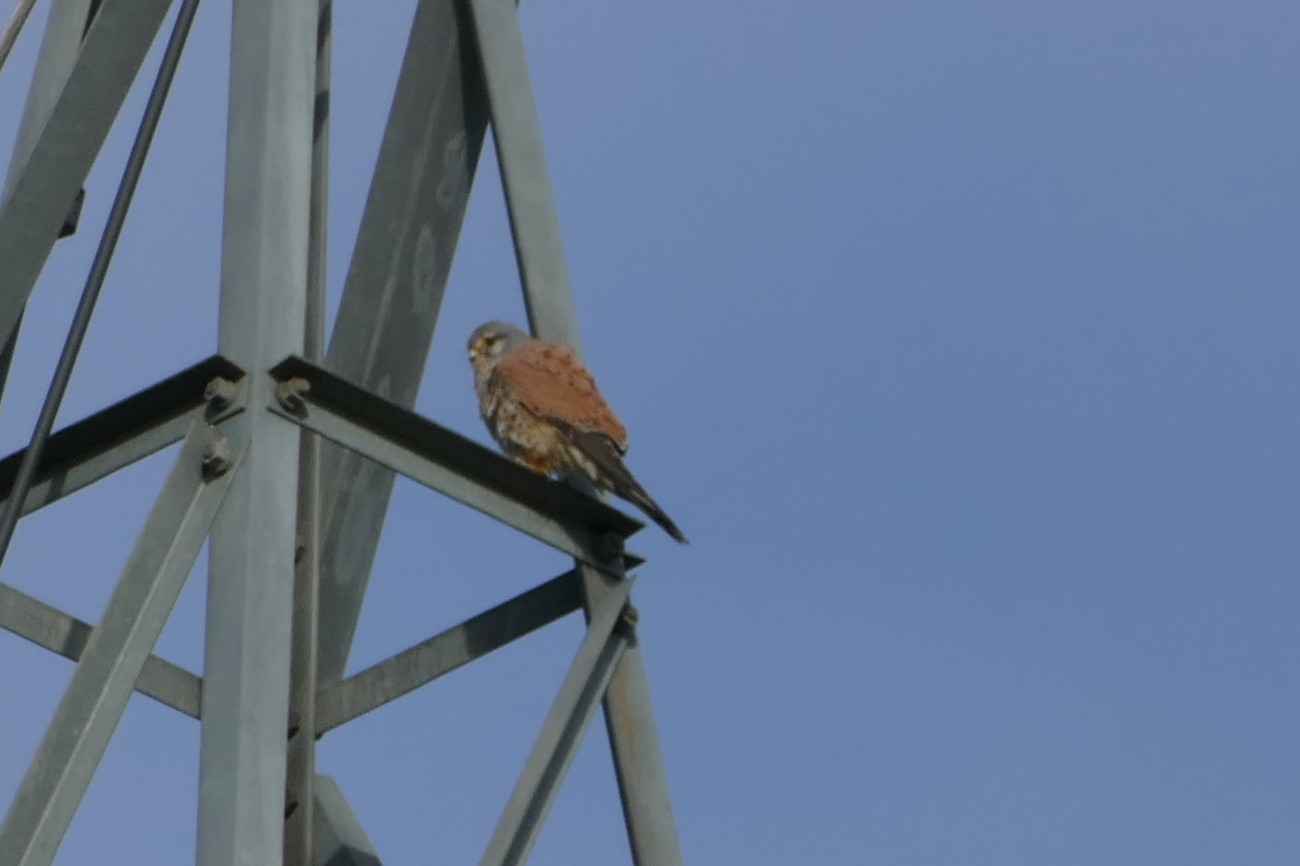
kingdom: Animalia
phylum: Chordata
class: Aves
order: Falconiformes
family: Falconidae
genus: Falco
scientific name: Falco tinnunculus
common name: Common kestrel
